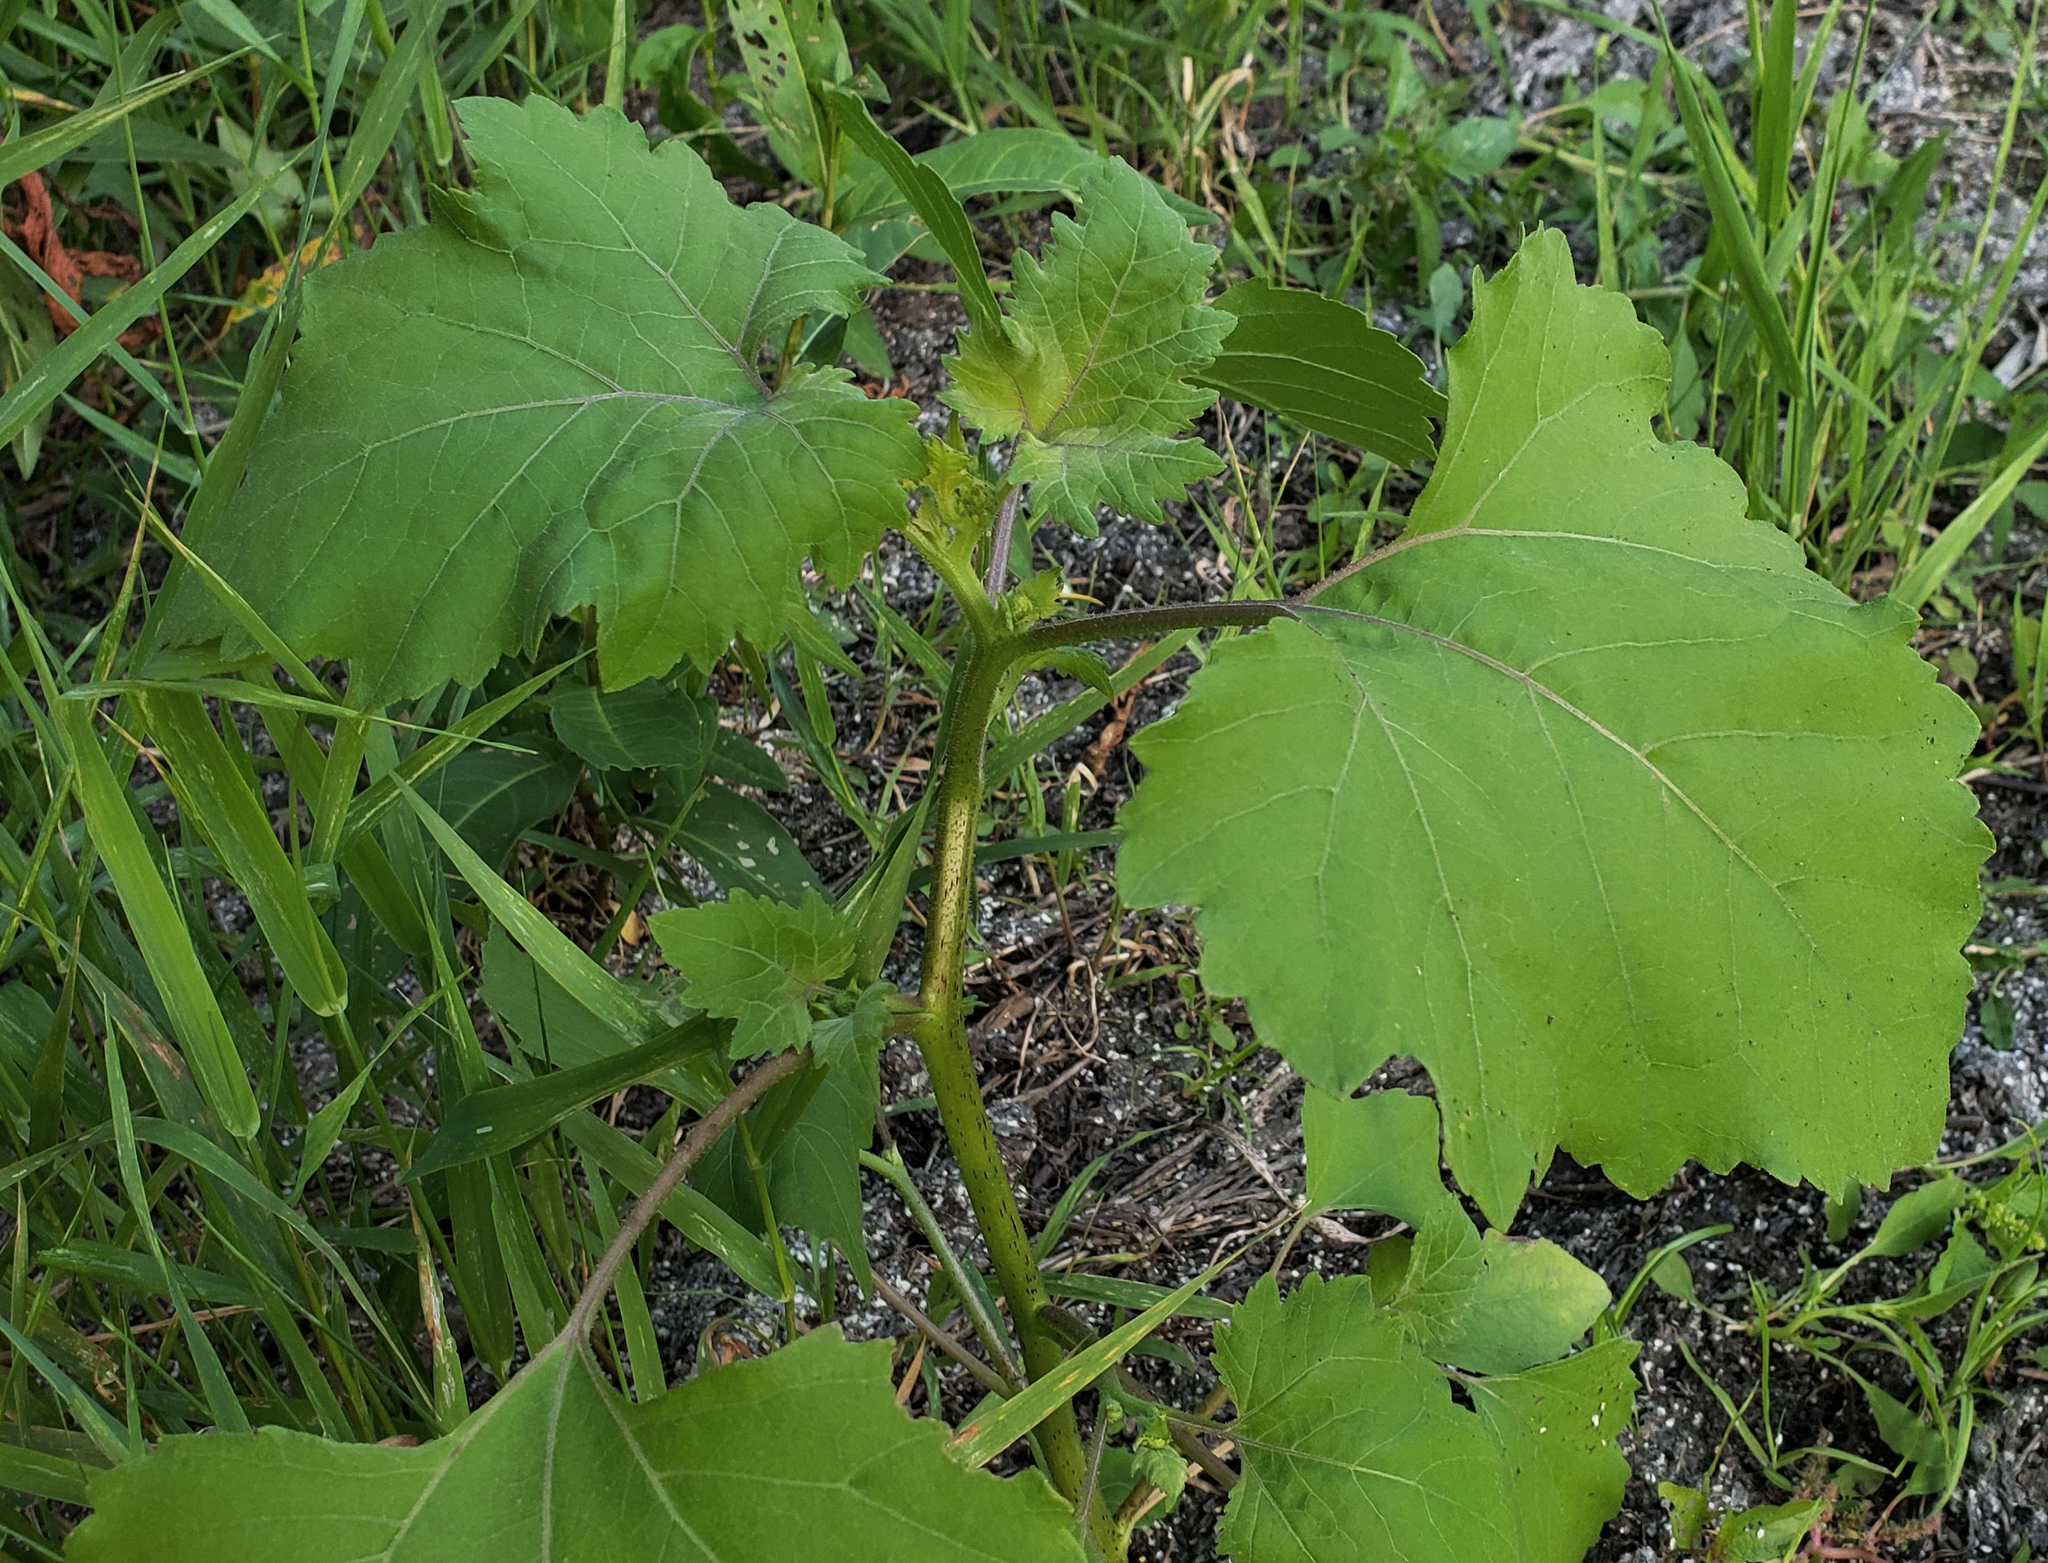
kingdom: Plantae
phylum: Tracheophyta
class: Magnoliopsida
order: Asterales
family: Asteraceae
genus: Xanthium
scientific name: Xanthium strumarium
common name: Rough cocklebur
